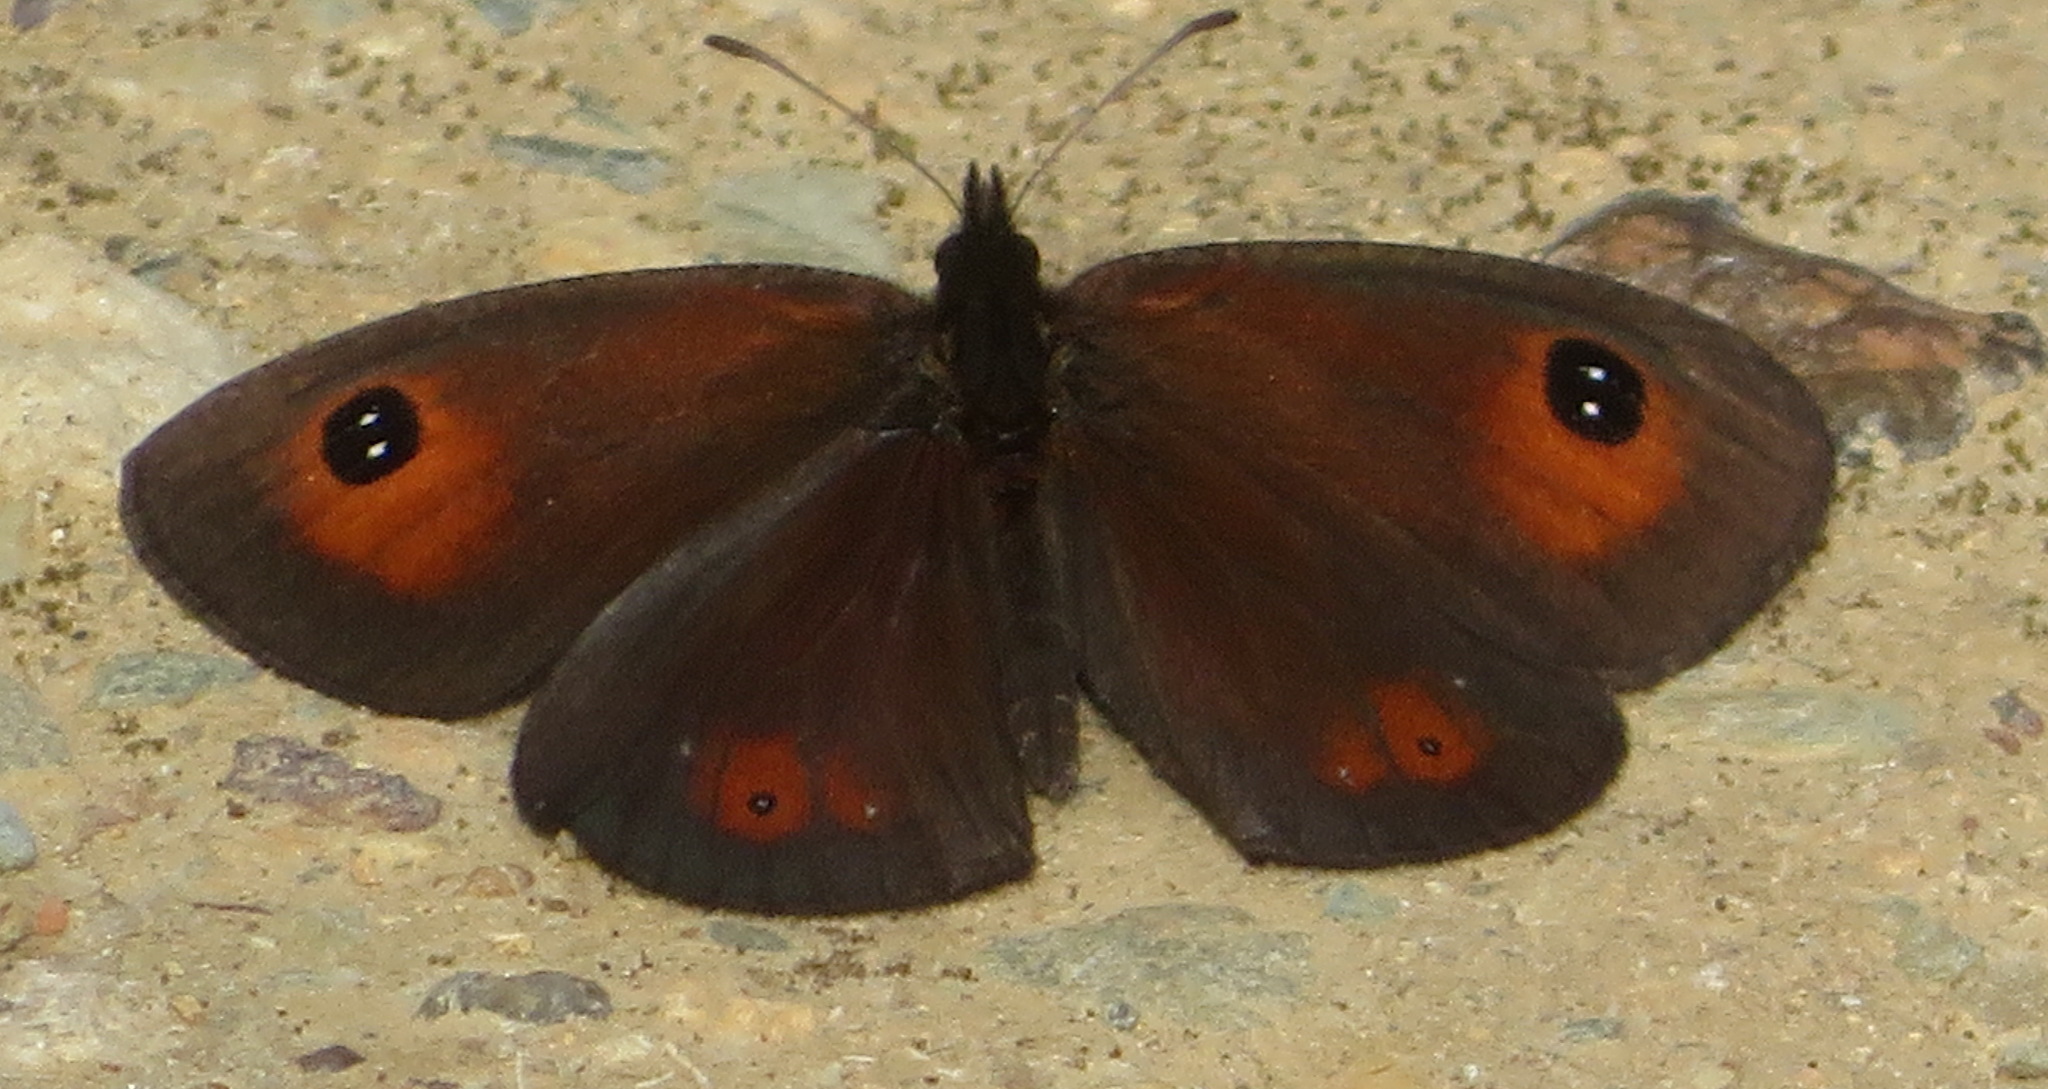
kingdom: Animalia
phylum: Arthropoda
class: Insecta
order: Lepidoptera
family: Nymphalidae
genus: Erebia
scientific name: Erebia
